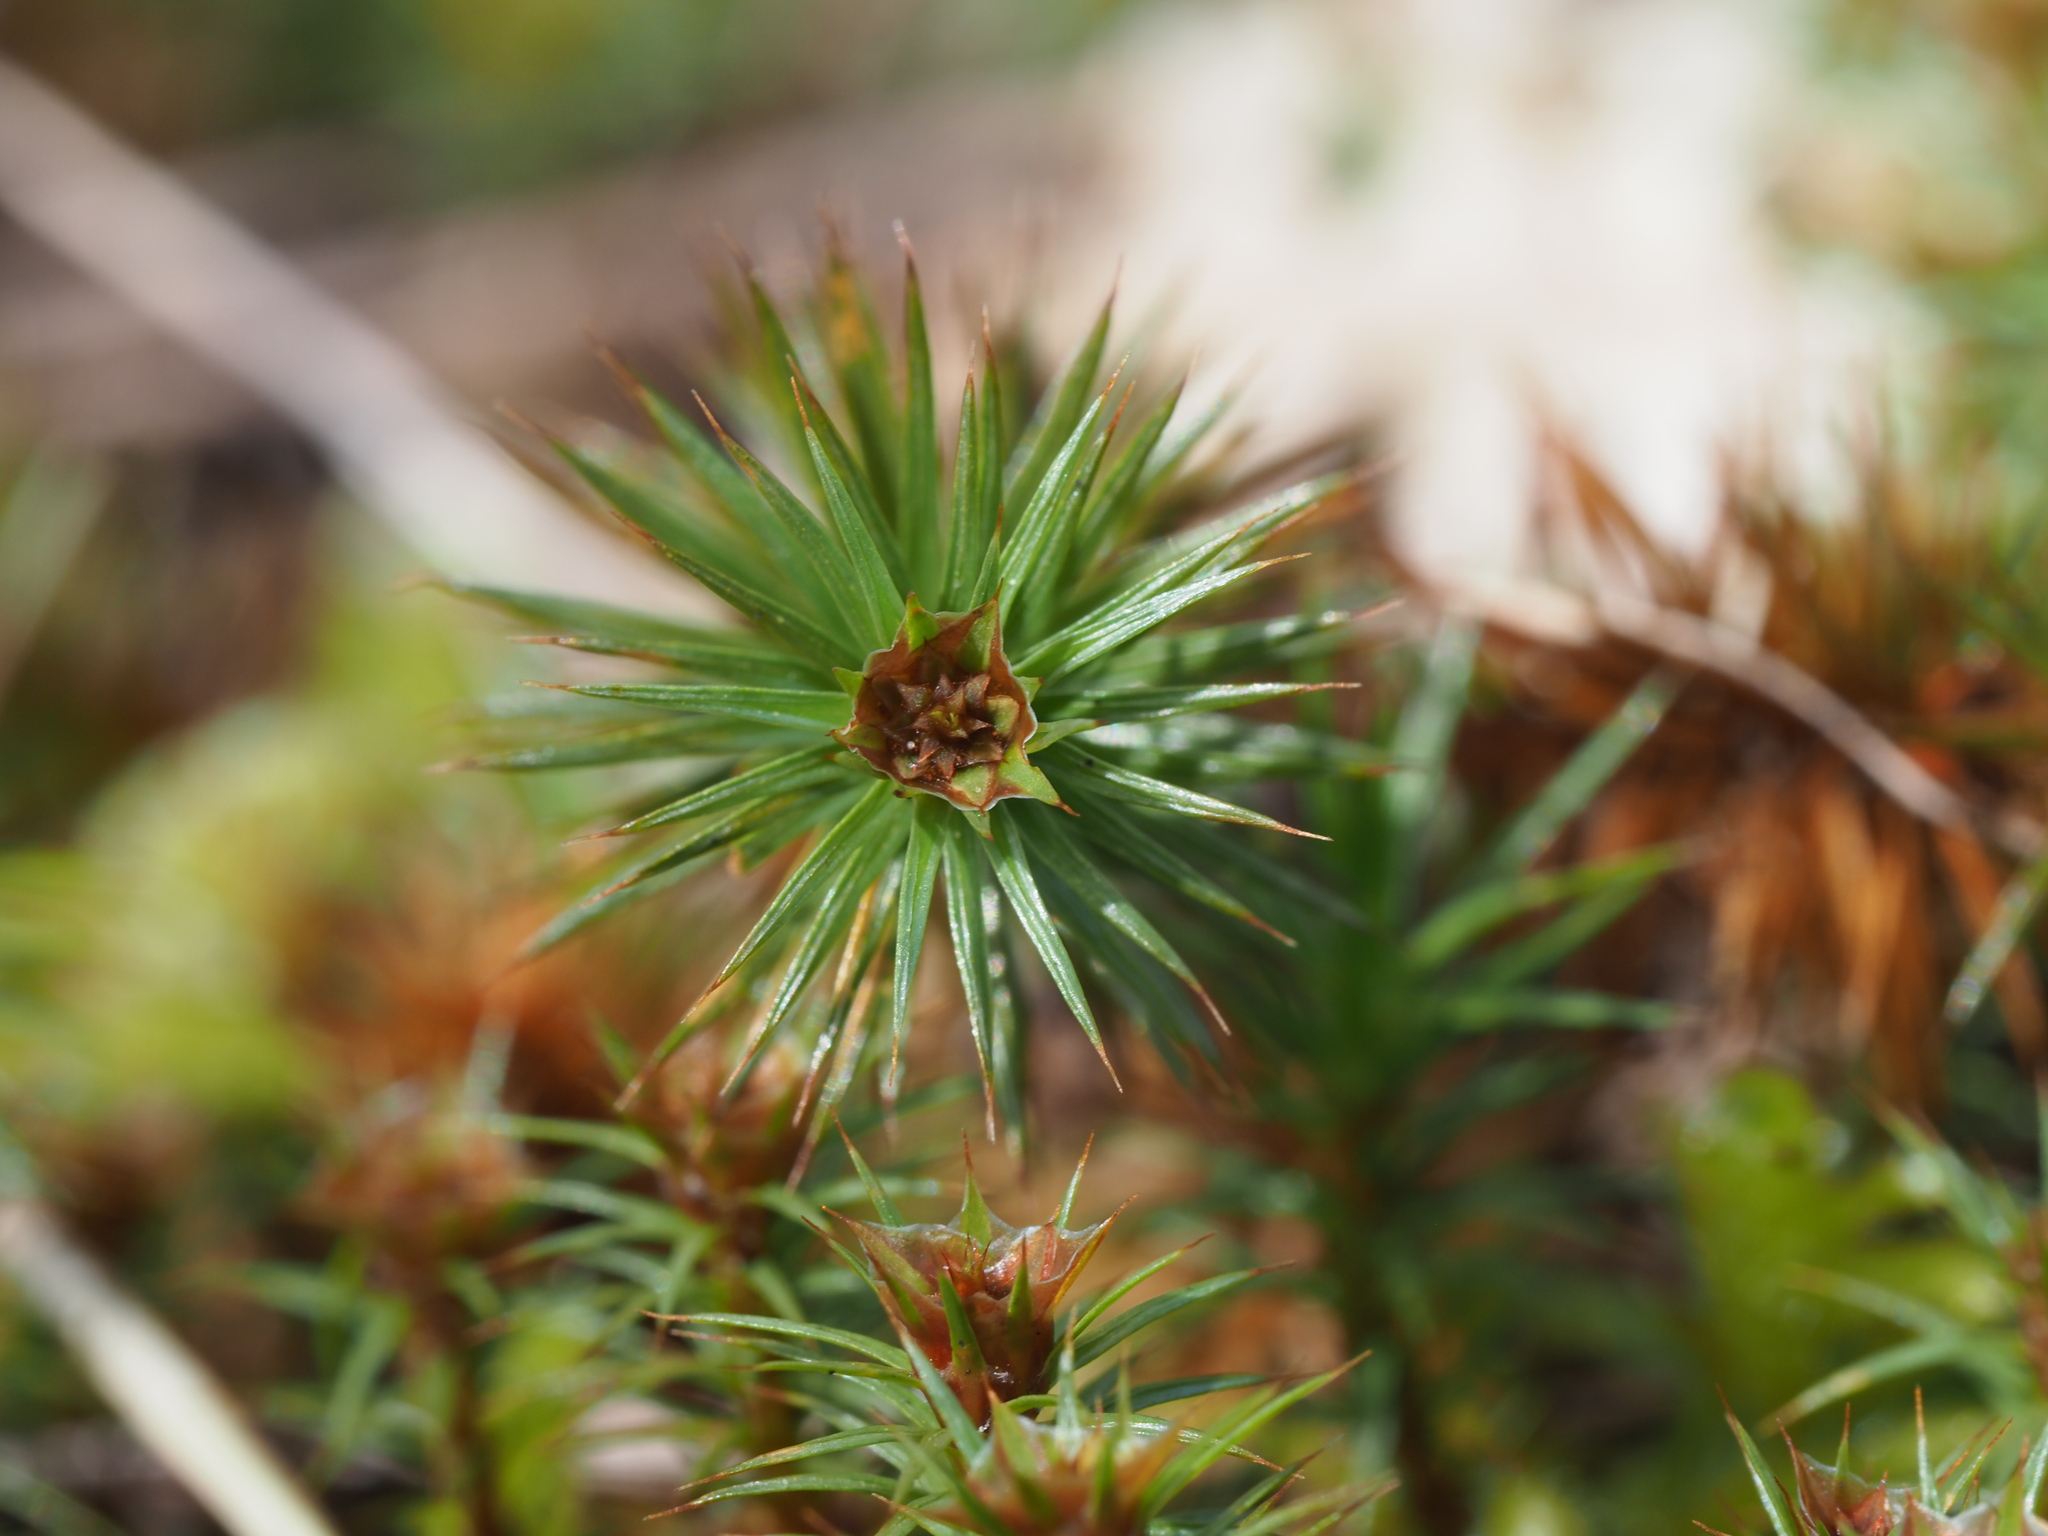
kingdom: Plantae
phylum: Bryophyta
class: Polytrichopsida
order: Polytrichales
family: Polytrichaceae
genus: Polytrichum
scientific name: Polytrichum juniperinum
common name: Juniper haircap moss
